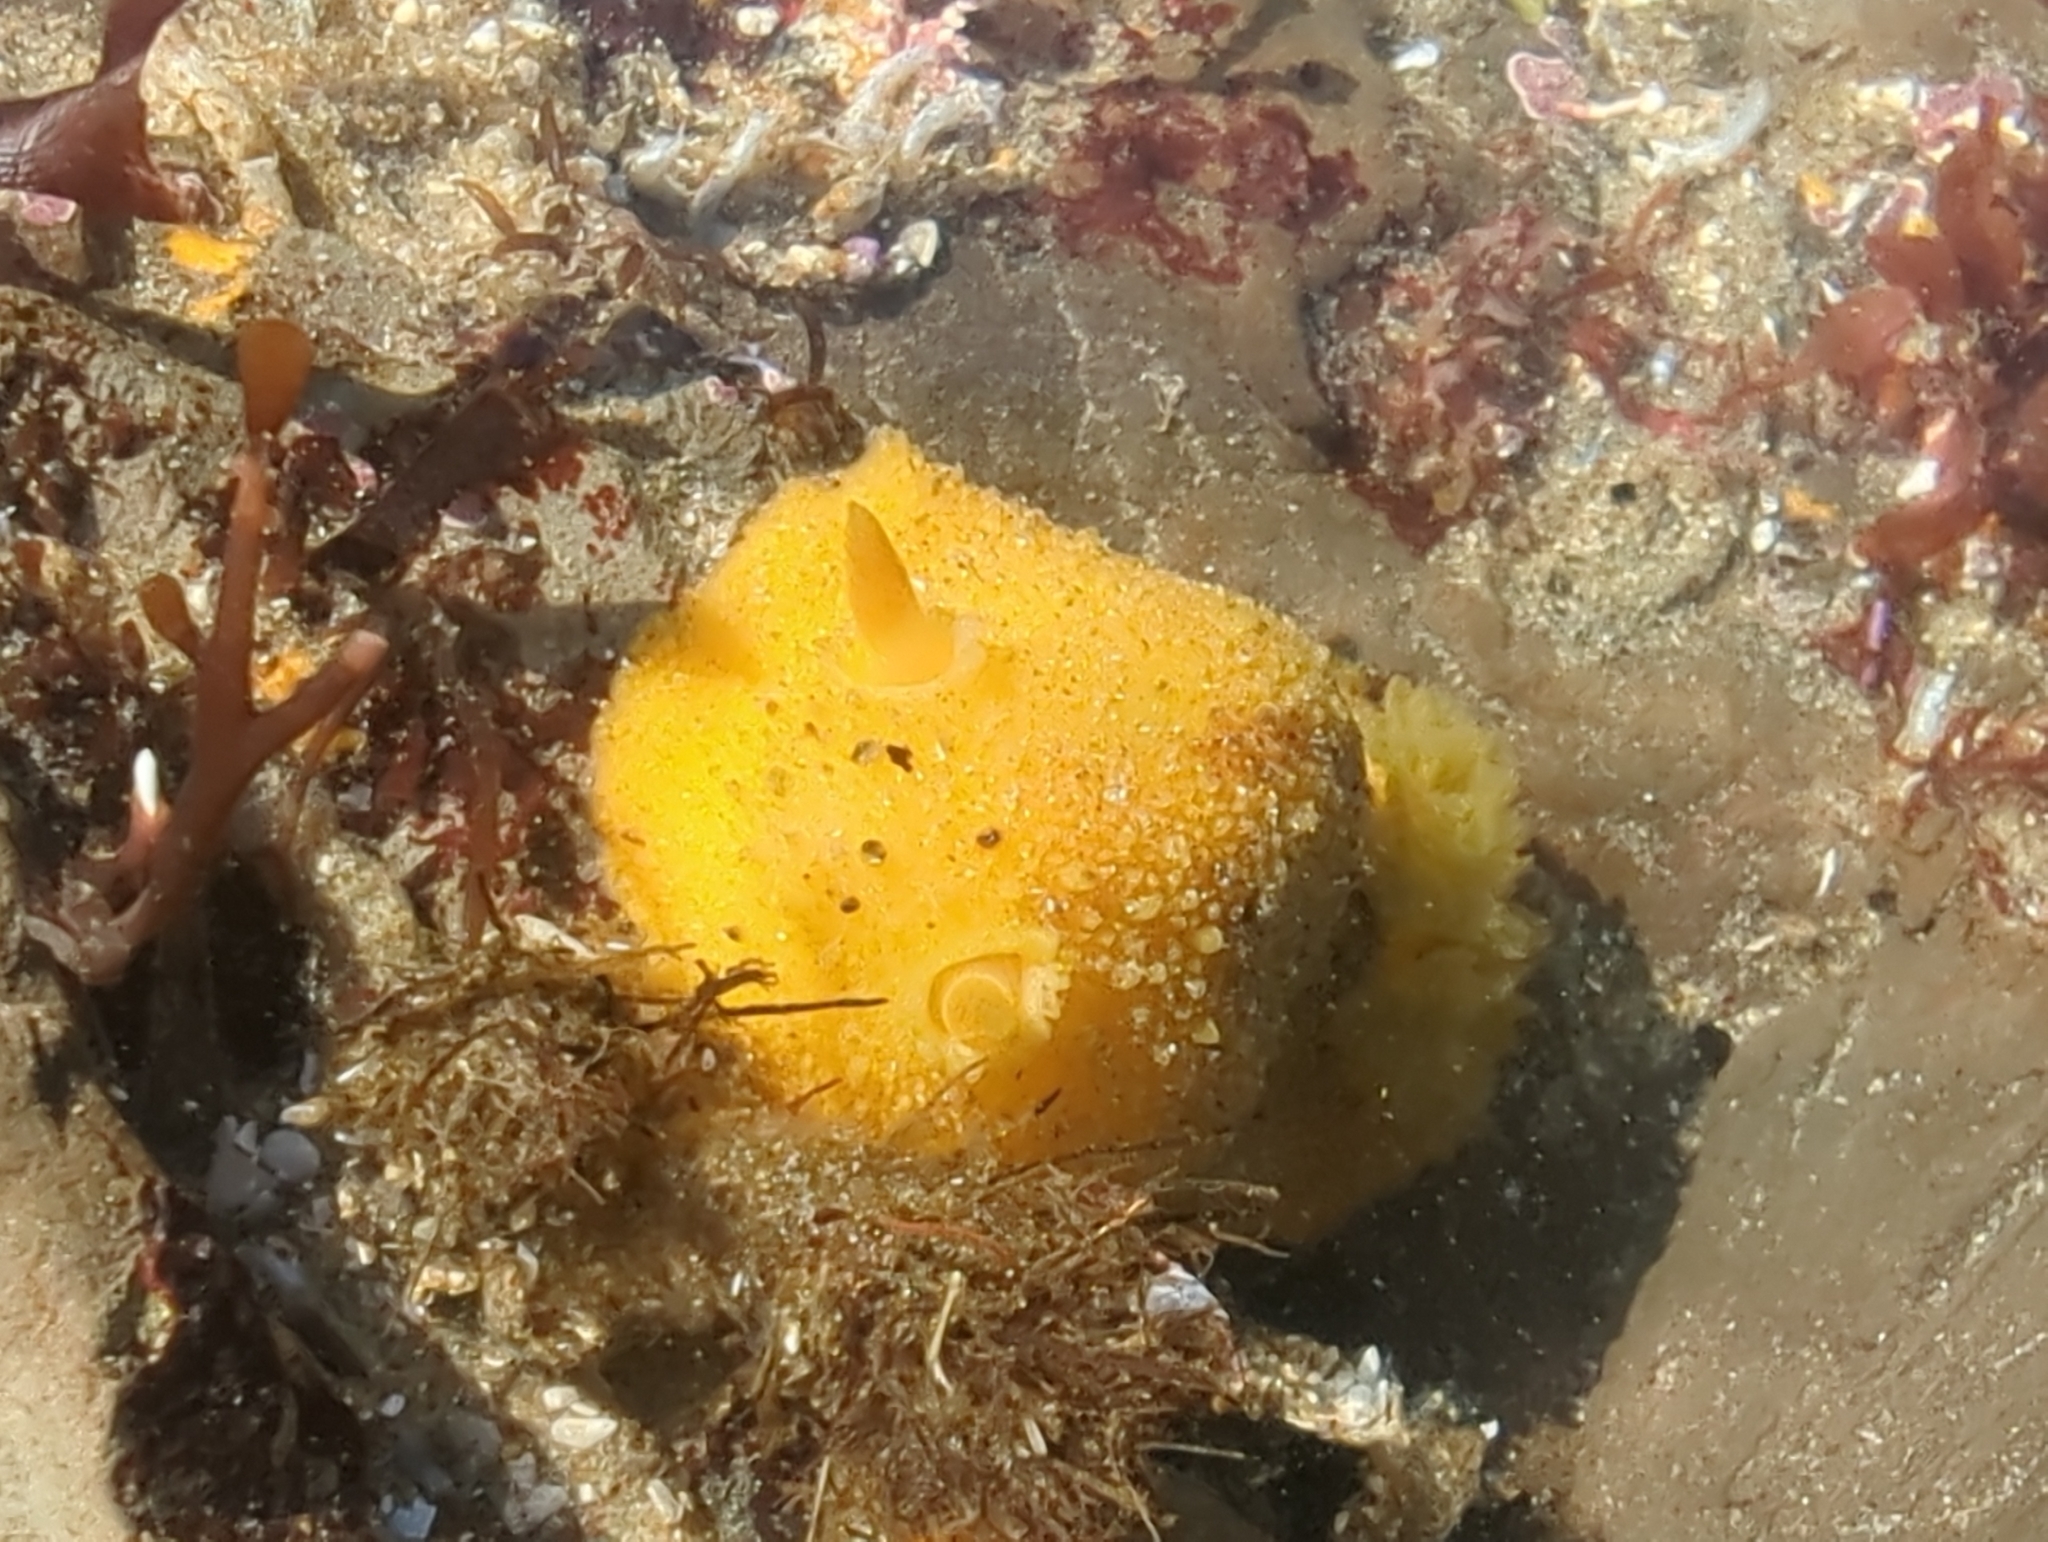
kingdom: Animalia
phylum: Mollusca
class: Gastropoda
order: Nudibranchia
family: Dorididae
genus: Doris
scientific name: Doris montereyensis
